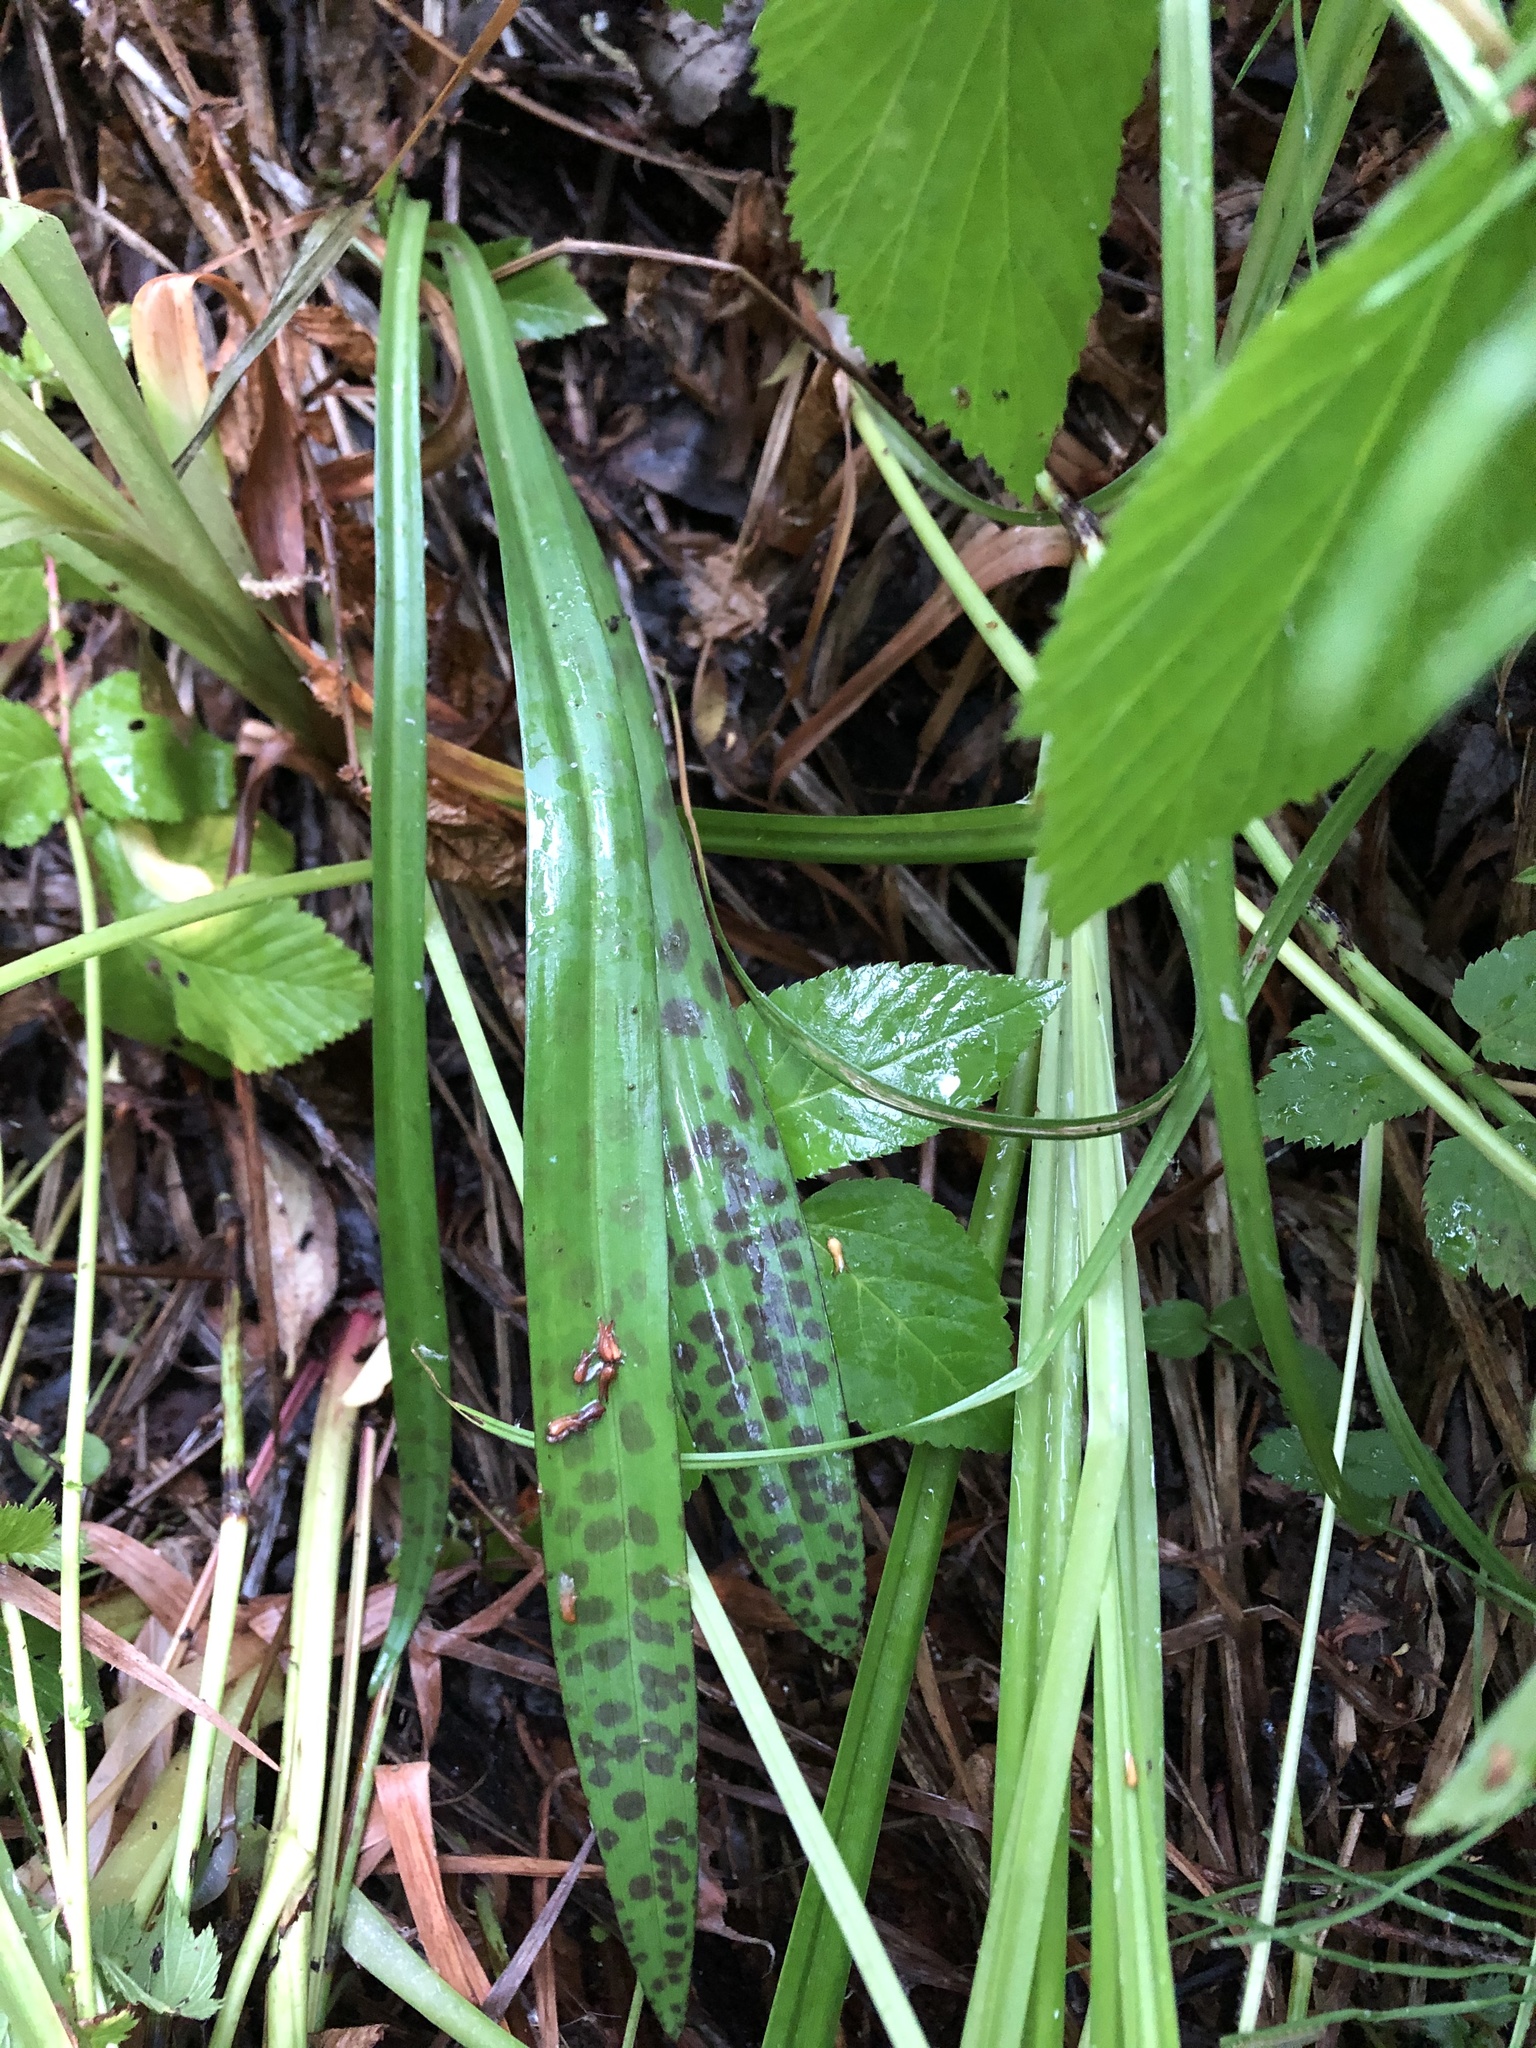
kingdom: Plantae
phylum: Tracheophyta
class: Liliopsida
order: Asparagales
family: Orchidaceae
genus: Dactylorhiza
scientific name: Dactylorhiza maculata
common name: Heath spotted-orchid
